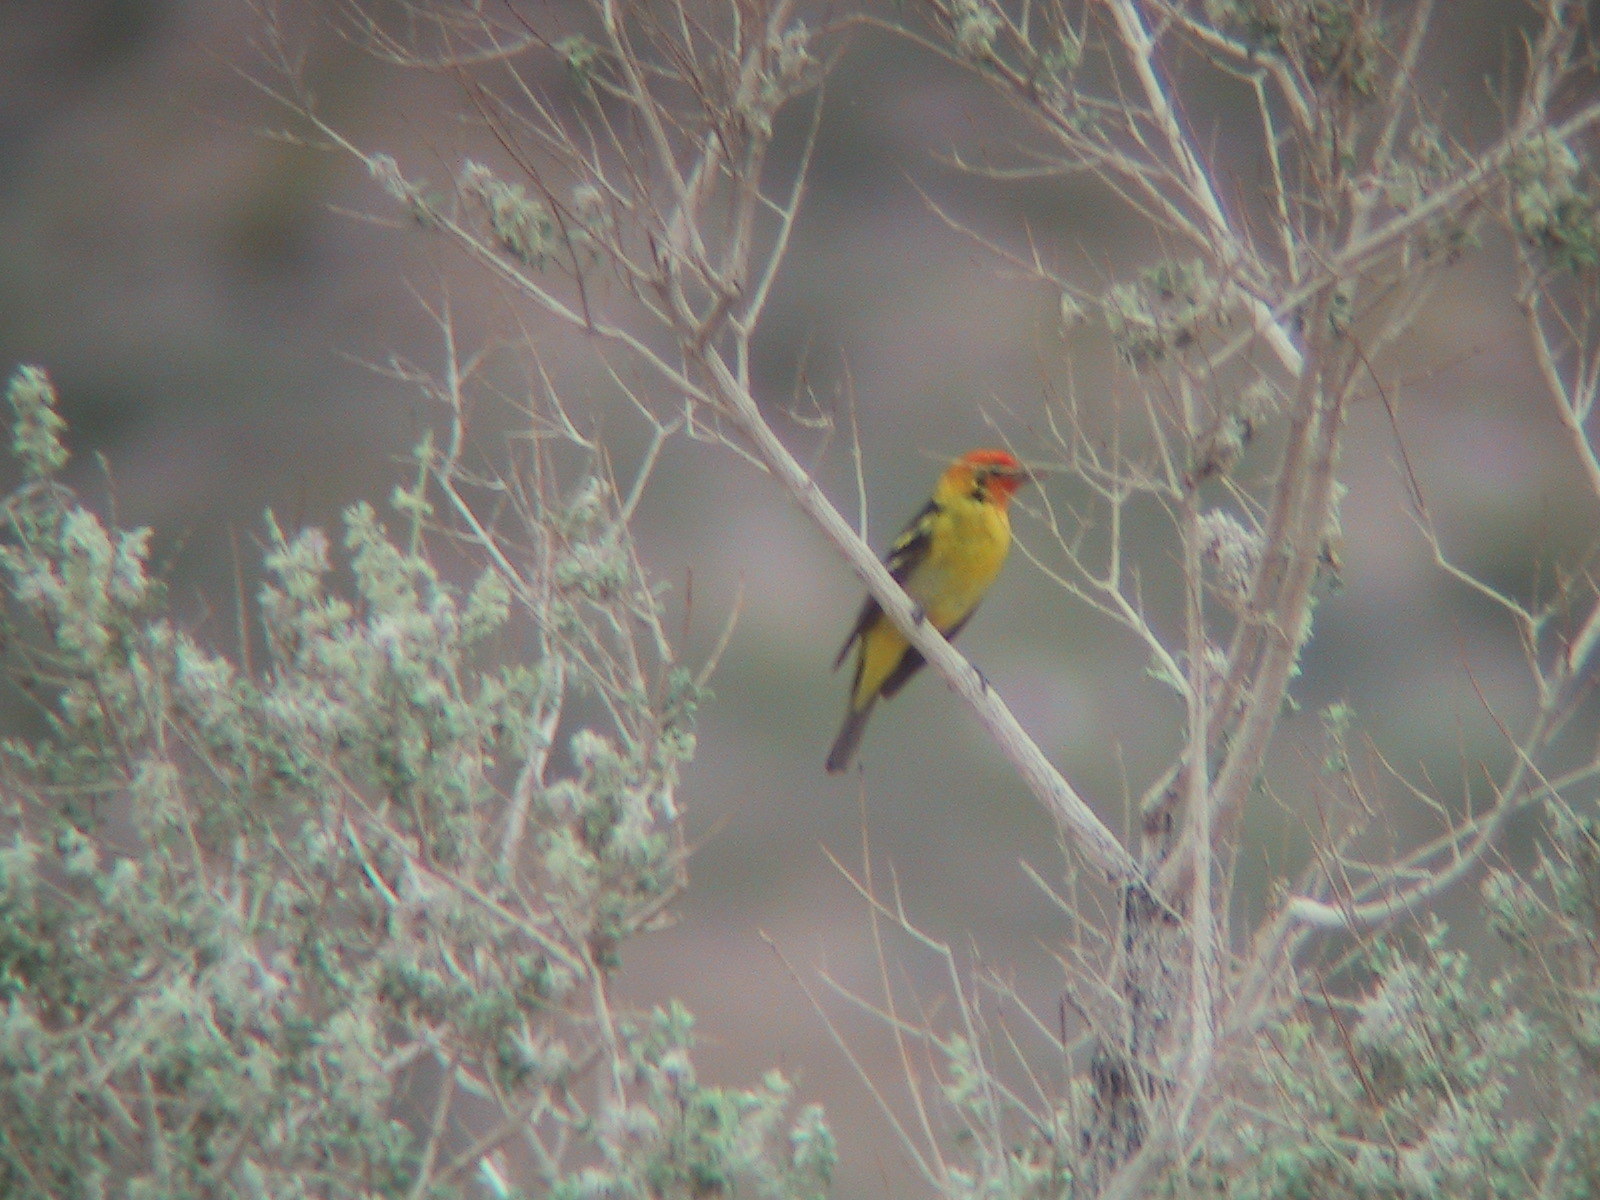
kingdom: Animalia
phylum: Chordata
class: Aves
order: Passeriformes
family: Cardinalidae
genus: Piranga
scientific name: Piranga ludoviciana
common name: Western tanager
